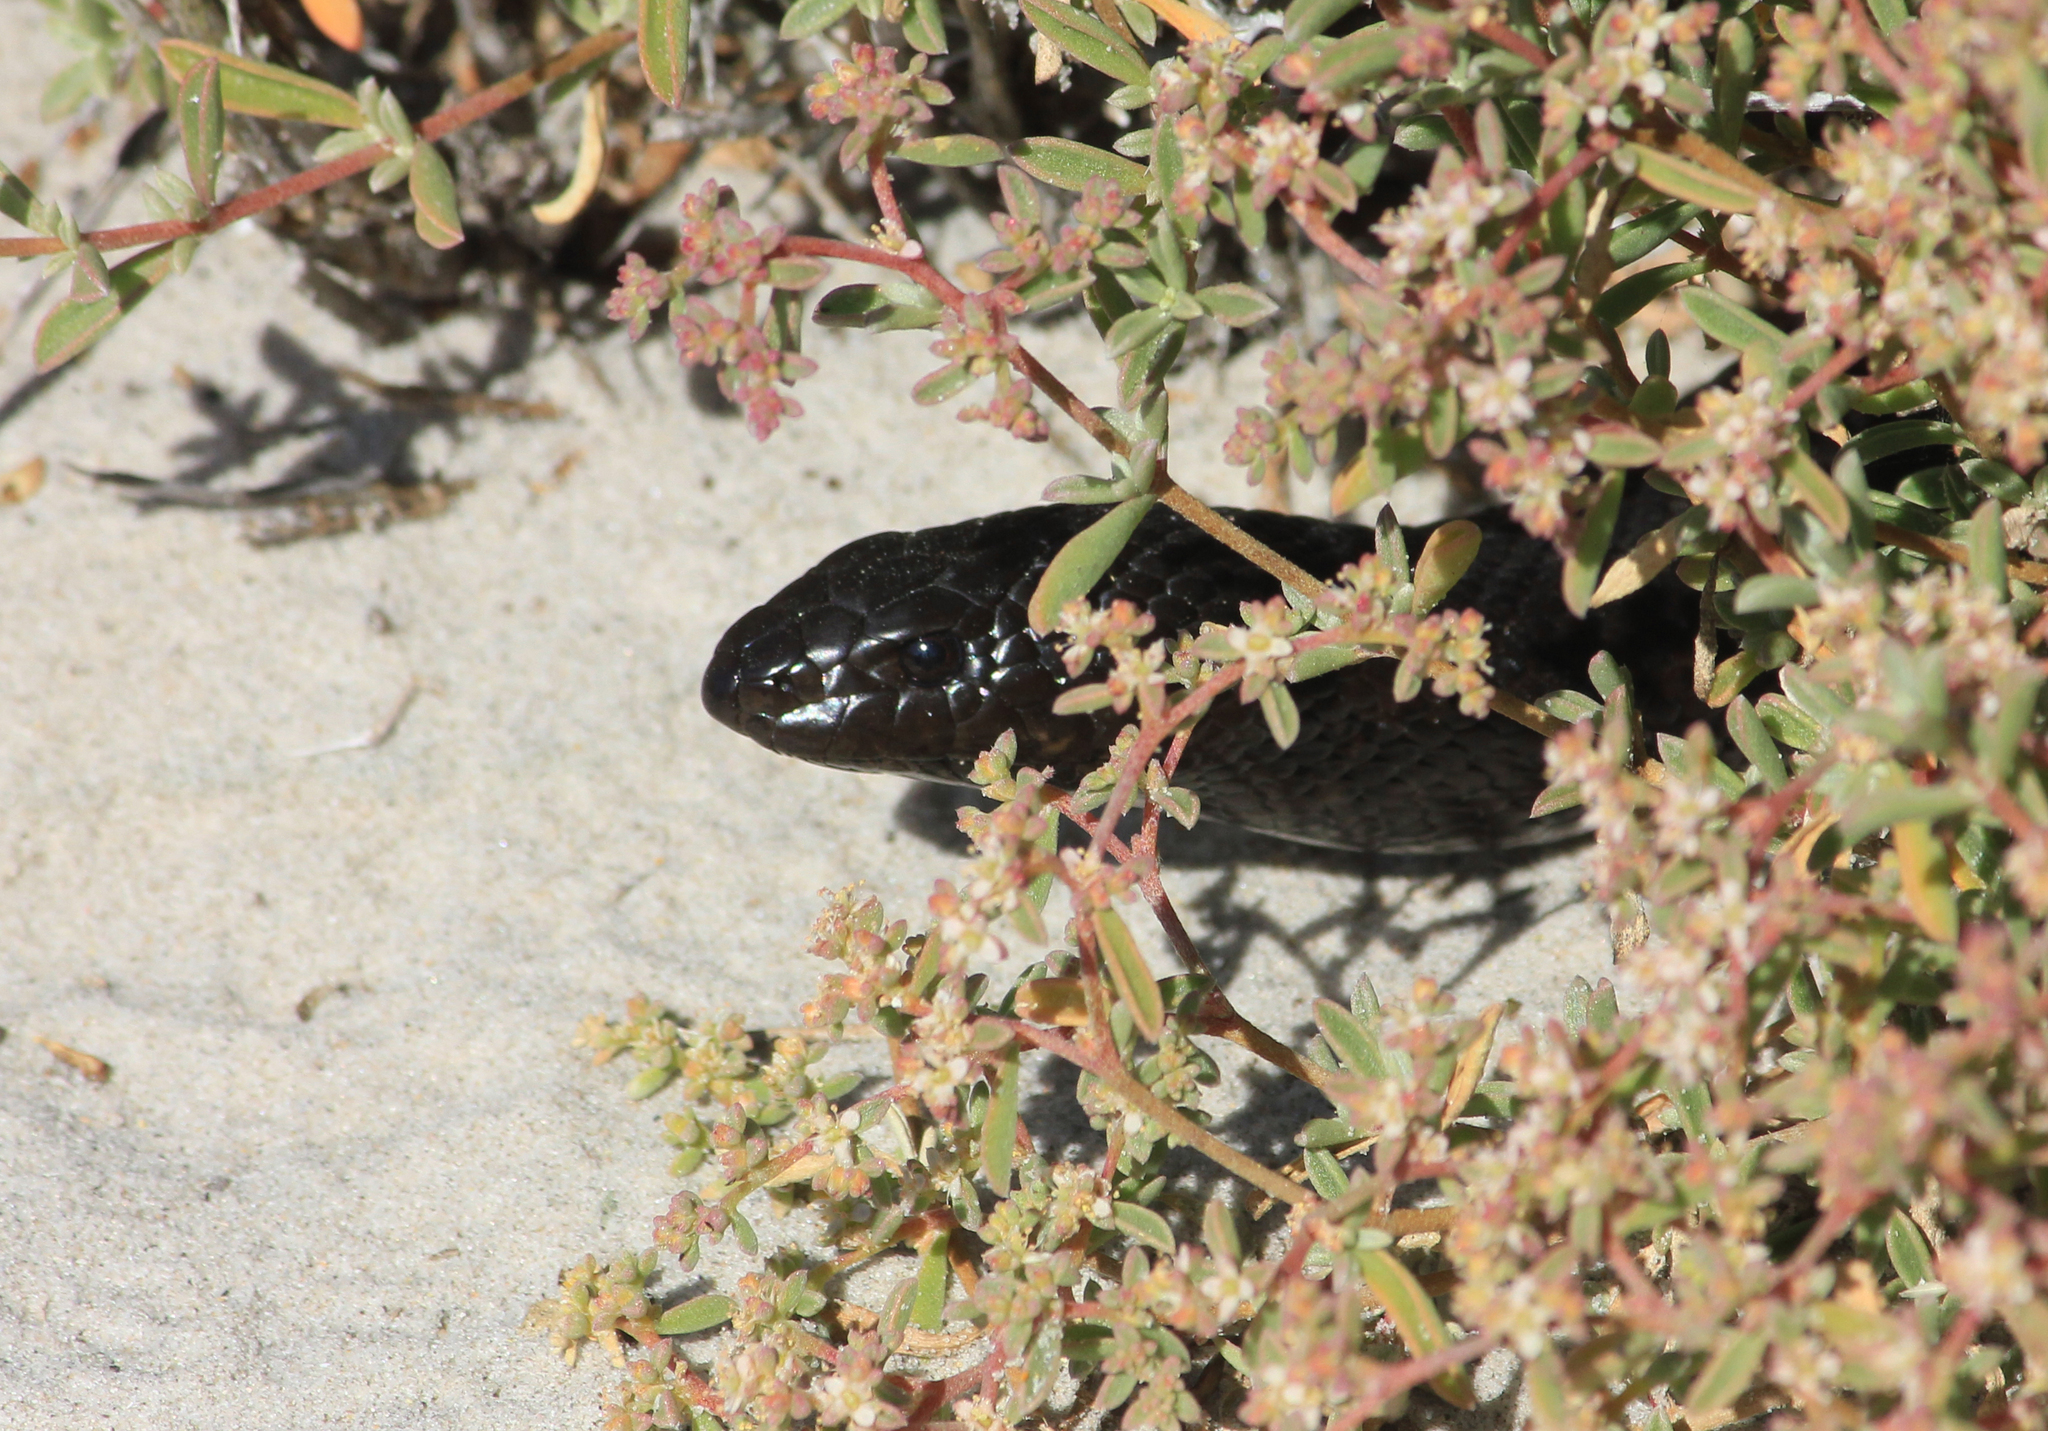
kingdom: Animalia
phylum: Chordata
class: Squamata
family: Pseudaspididae
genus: Pseudaspis
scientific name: Pseudaspis cana
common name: Mole snake
